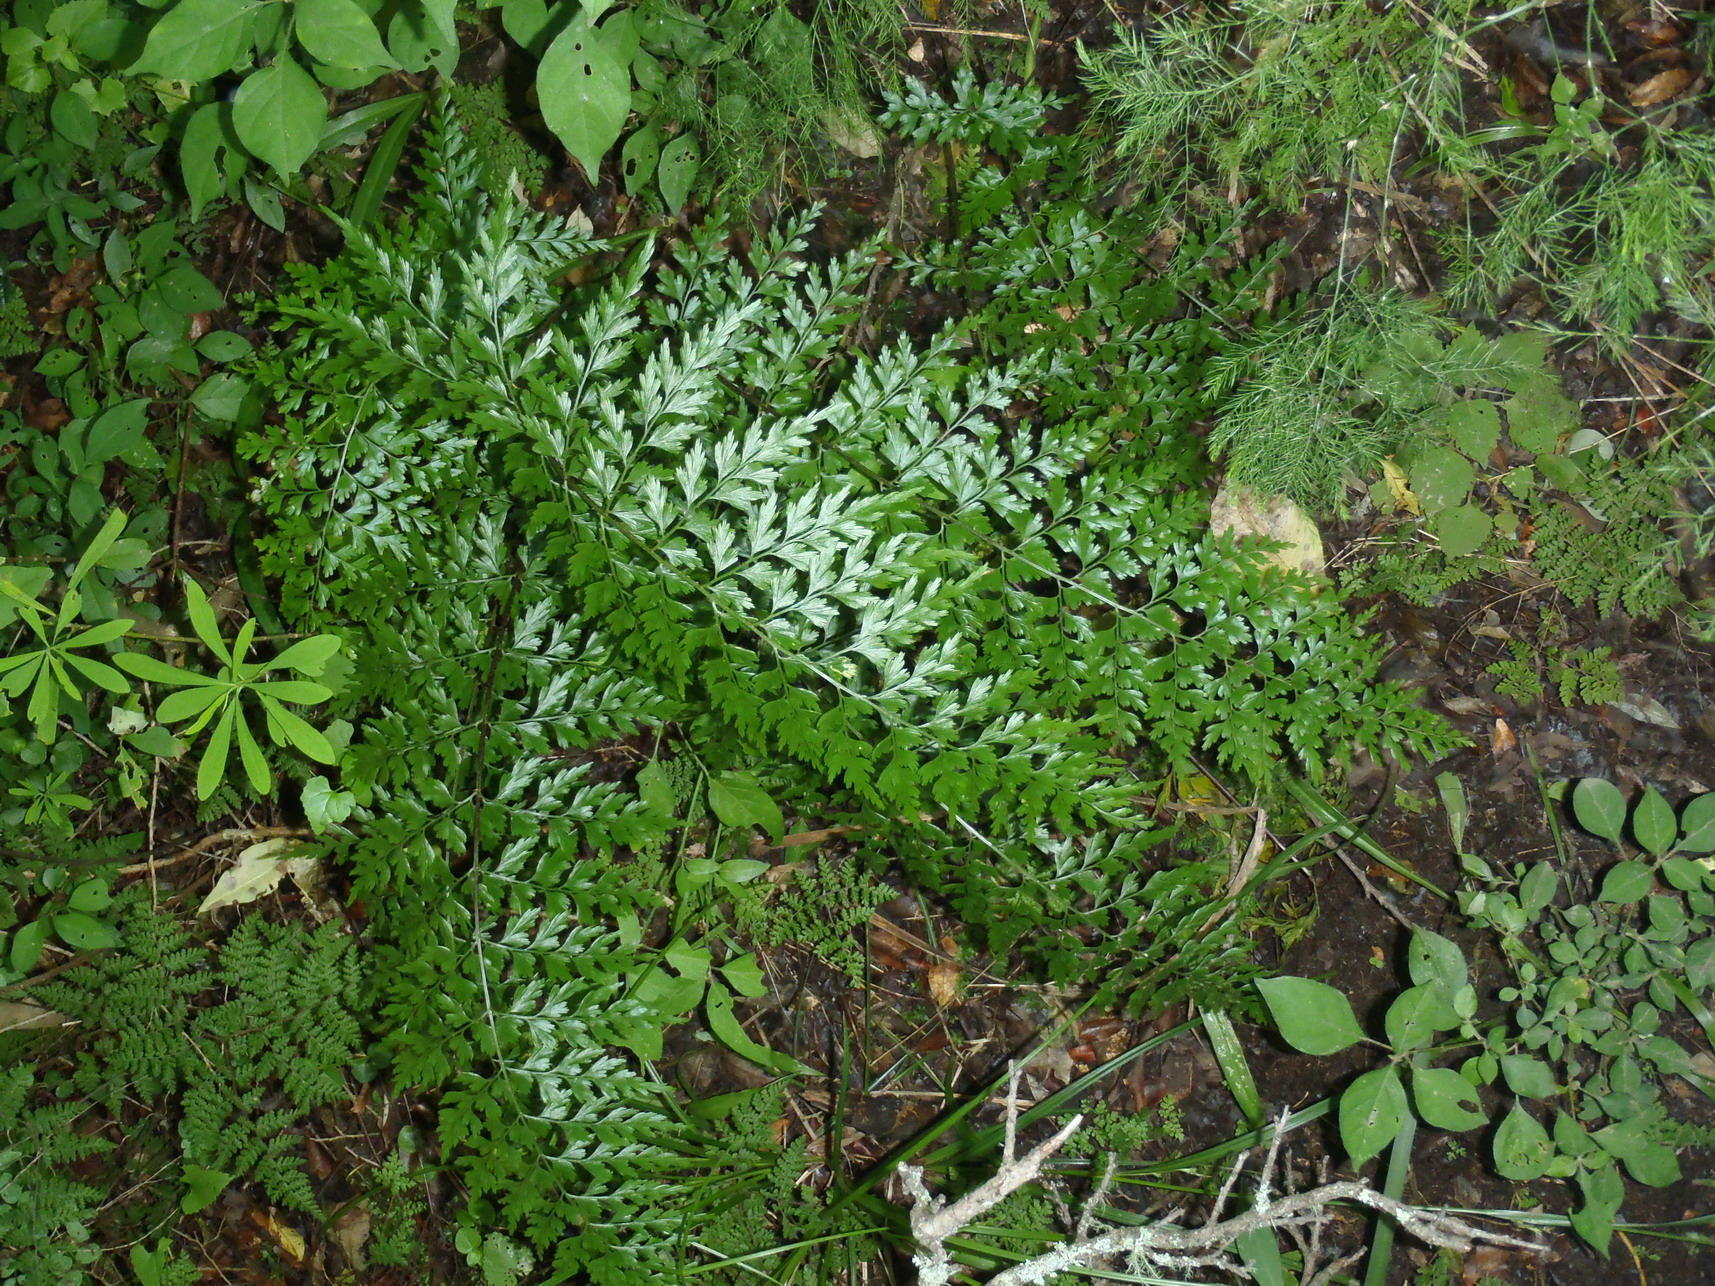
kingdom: Plantae
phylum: Tracheophyta
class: Polypodiopsida
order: Polypodiales
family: Aspleniaceae
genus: Asplenium
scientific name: Asplenium splendens
